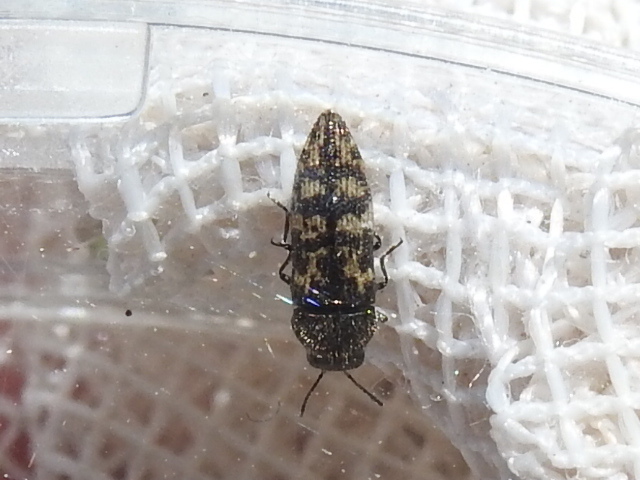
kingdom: Animalia
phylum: Arthropoda
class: Insecta
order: Coleoptera
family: Buprestidae
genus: Acmaeodera
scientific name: Acmaeodera neglecta
